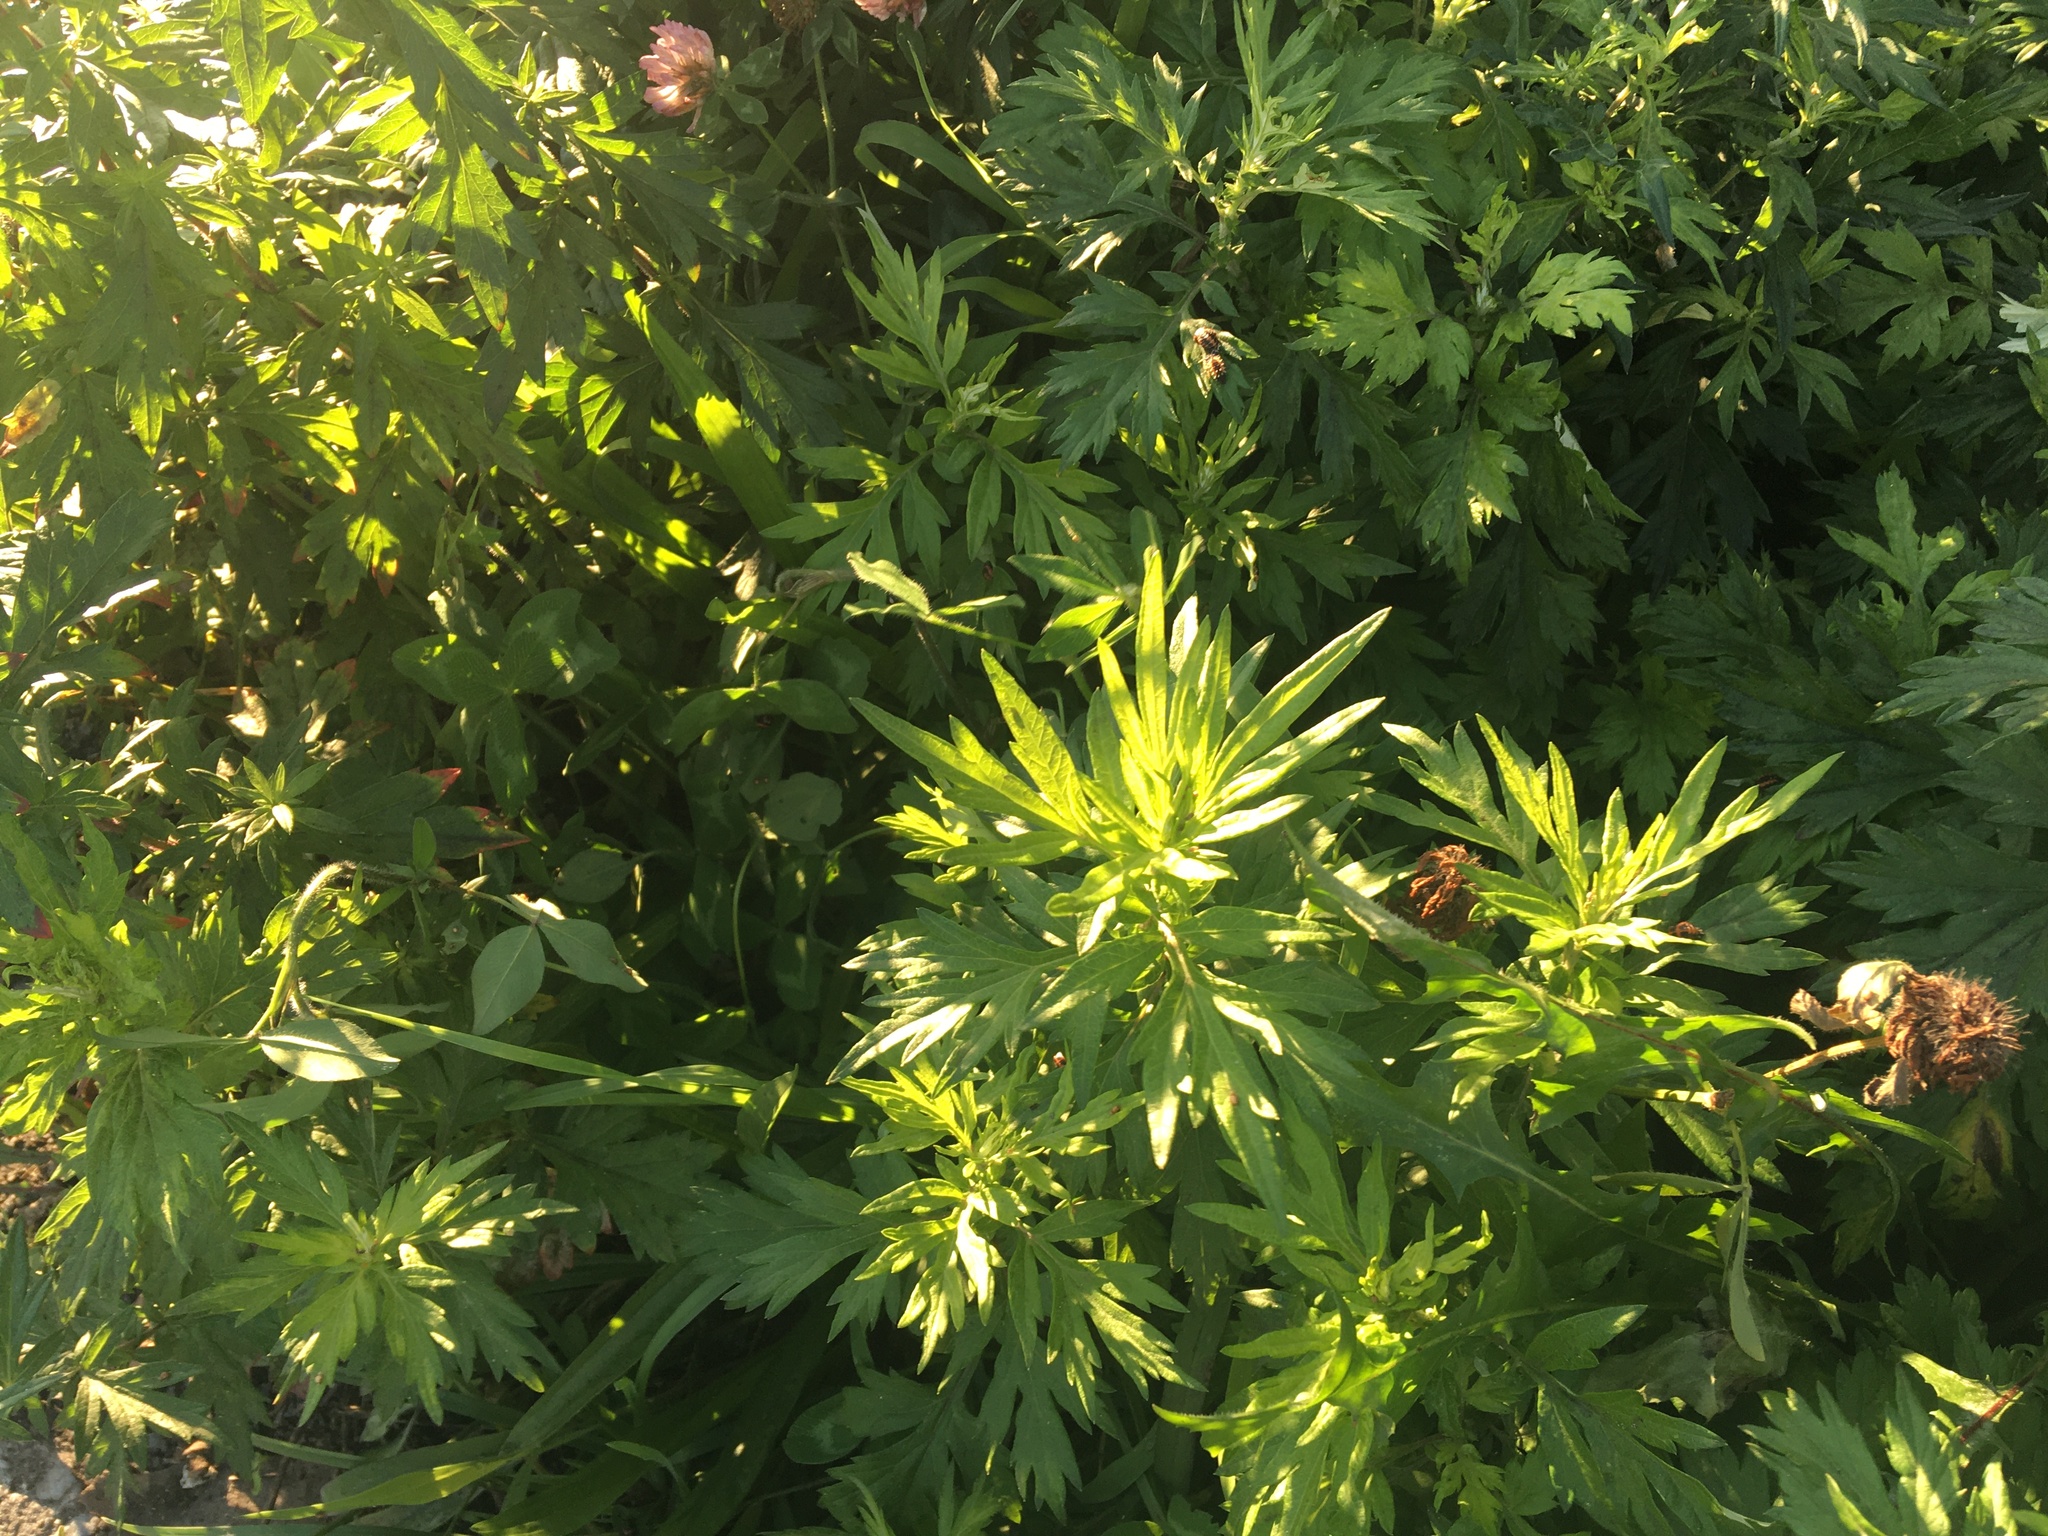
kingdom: Plantae
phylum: Tracheophyta
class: Magnoliopsida
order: Asterales
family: Asteraceae
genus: Artemisia
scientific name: Artemisia vulgaris
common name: Mugwort
